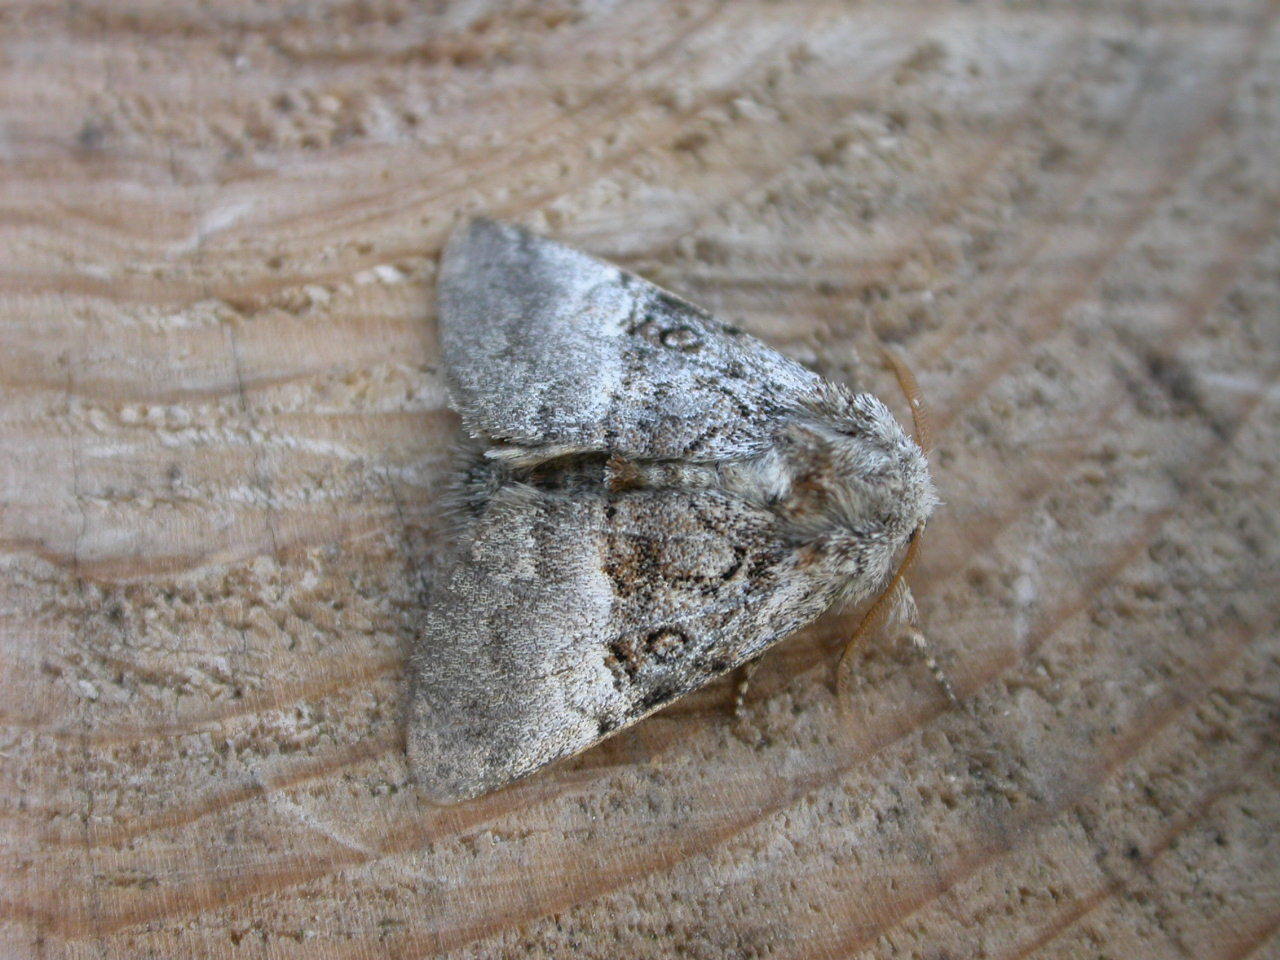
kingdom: Animalia
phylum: Arthropoda
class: Insecta
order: Lepidoptera
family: Noctuidae
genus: Colocasia
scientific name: Colocasia coryli
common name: Nut-tree tussock
